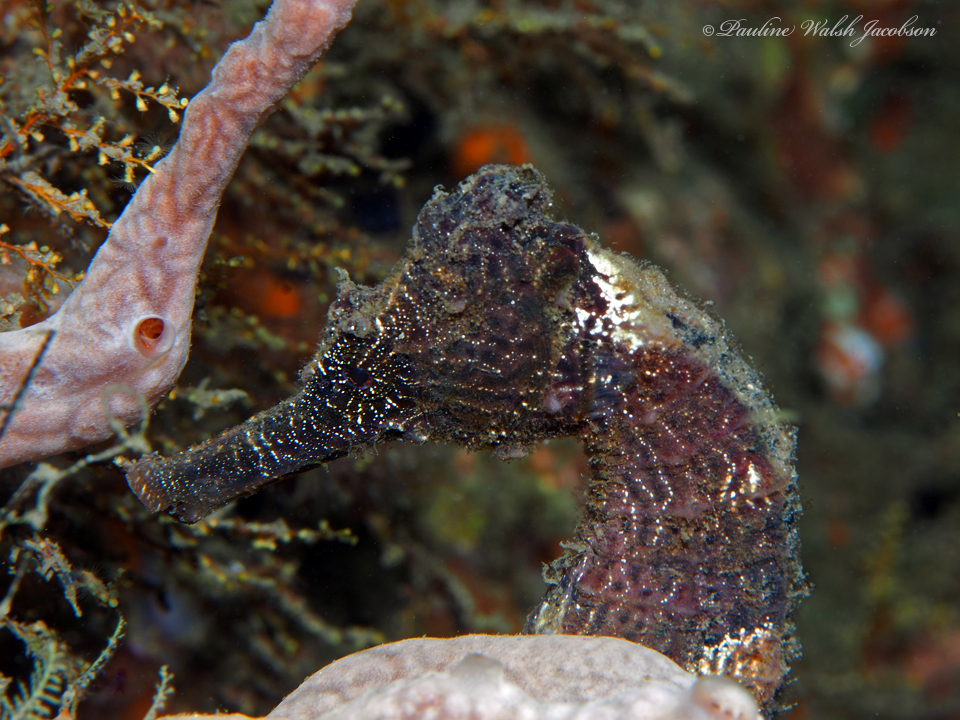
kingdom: Animalia
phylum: Chordata
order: Syngnathiformes
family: Syngnathidae
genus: Hippocampus
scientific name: Hippocampus reidi
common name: Slender seahorse
